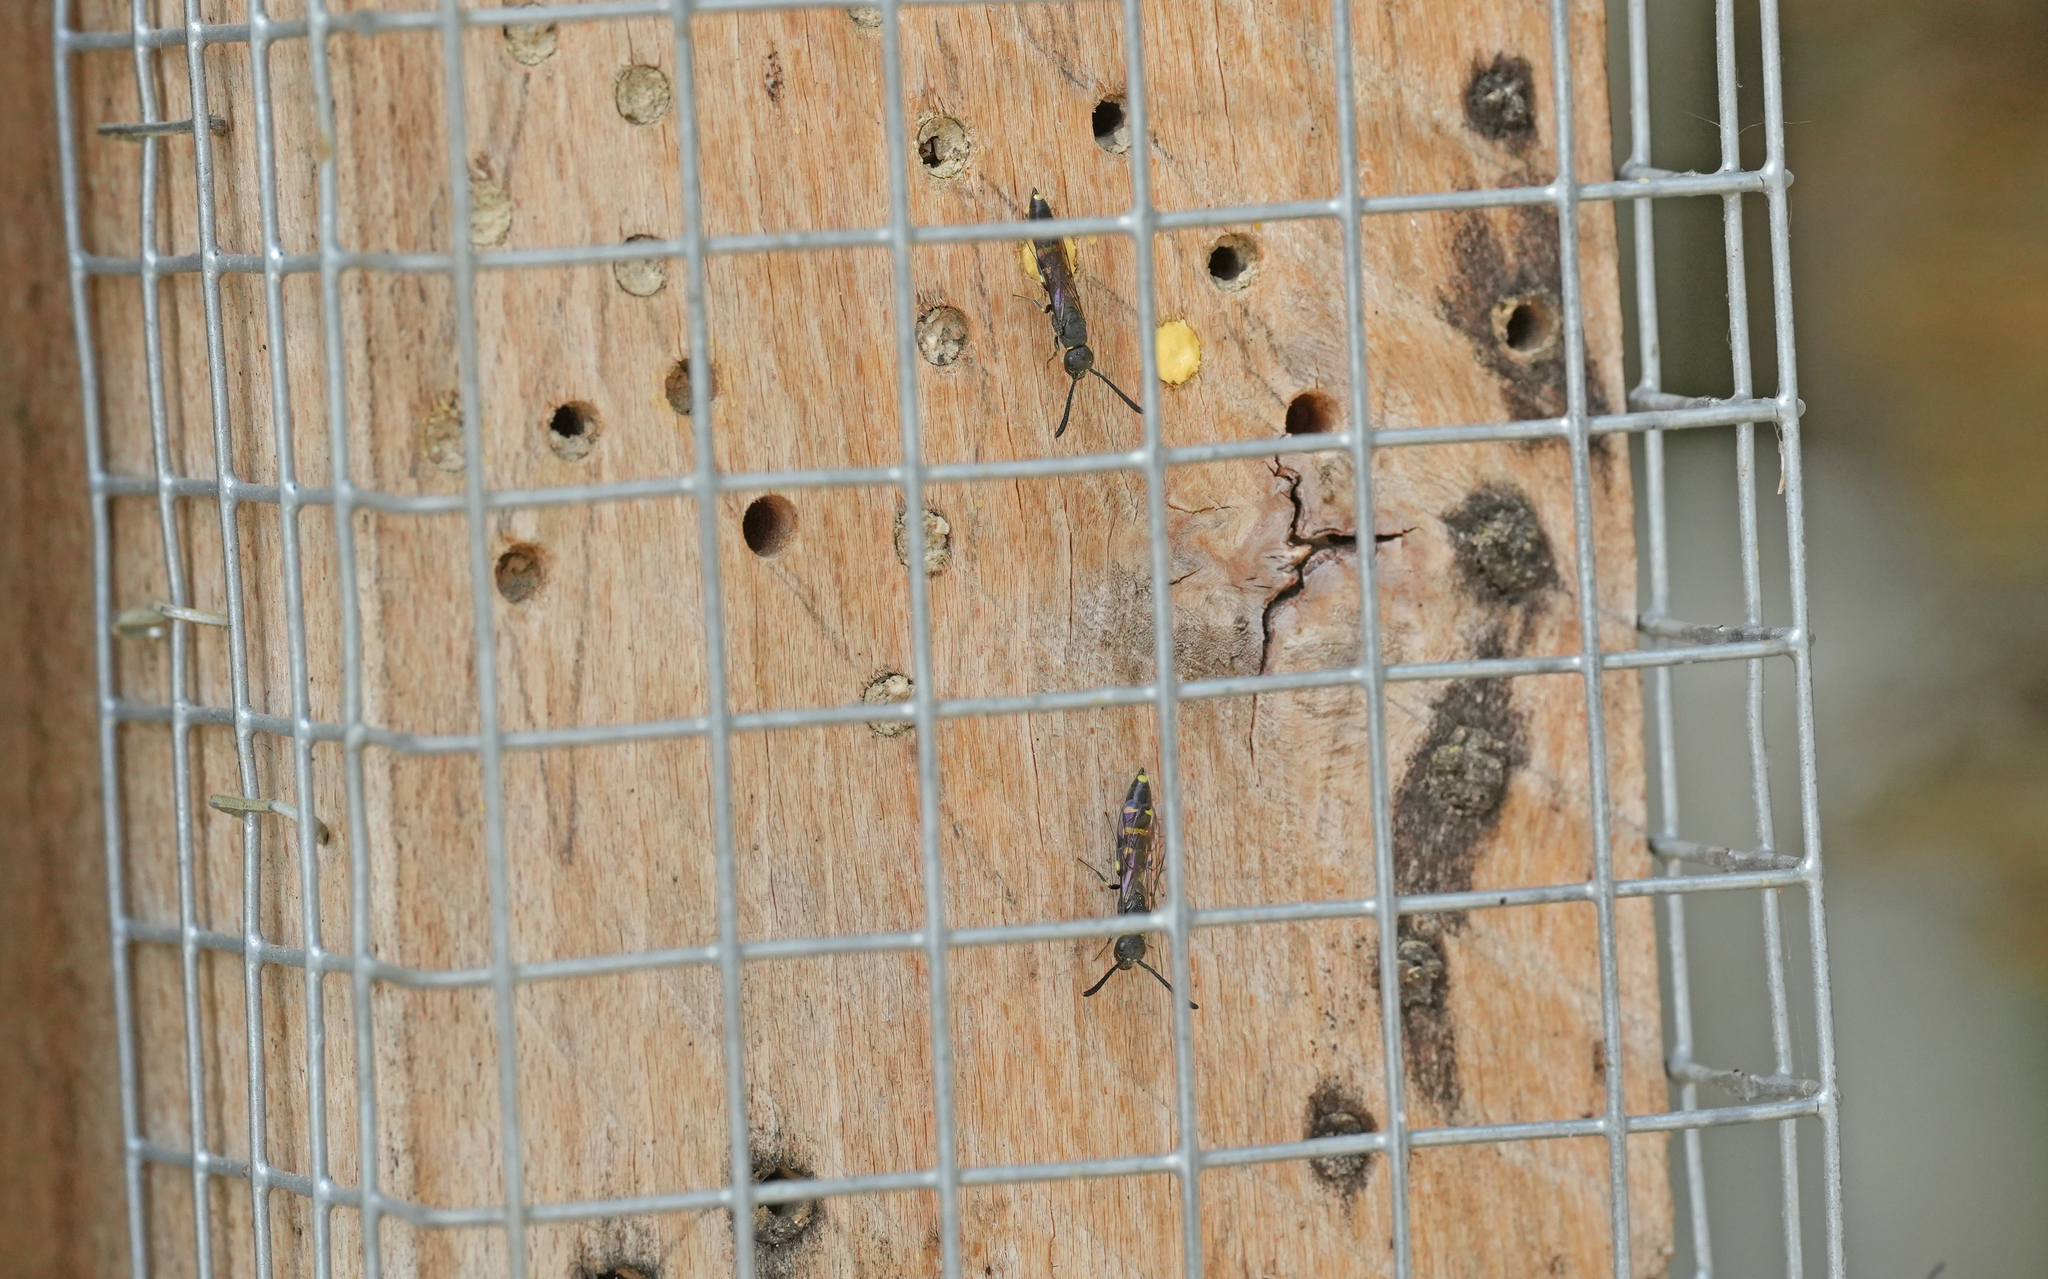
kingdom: Animalia
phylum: Arthropoda
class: Insecta
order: Hymenoptera
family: Sapygidae
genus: Monosapyga
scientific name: Monosapyga clavicornis
